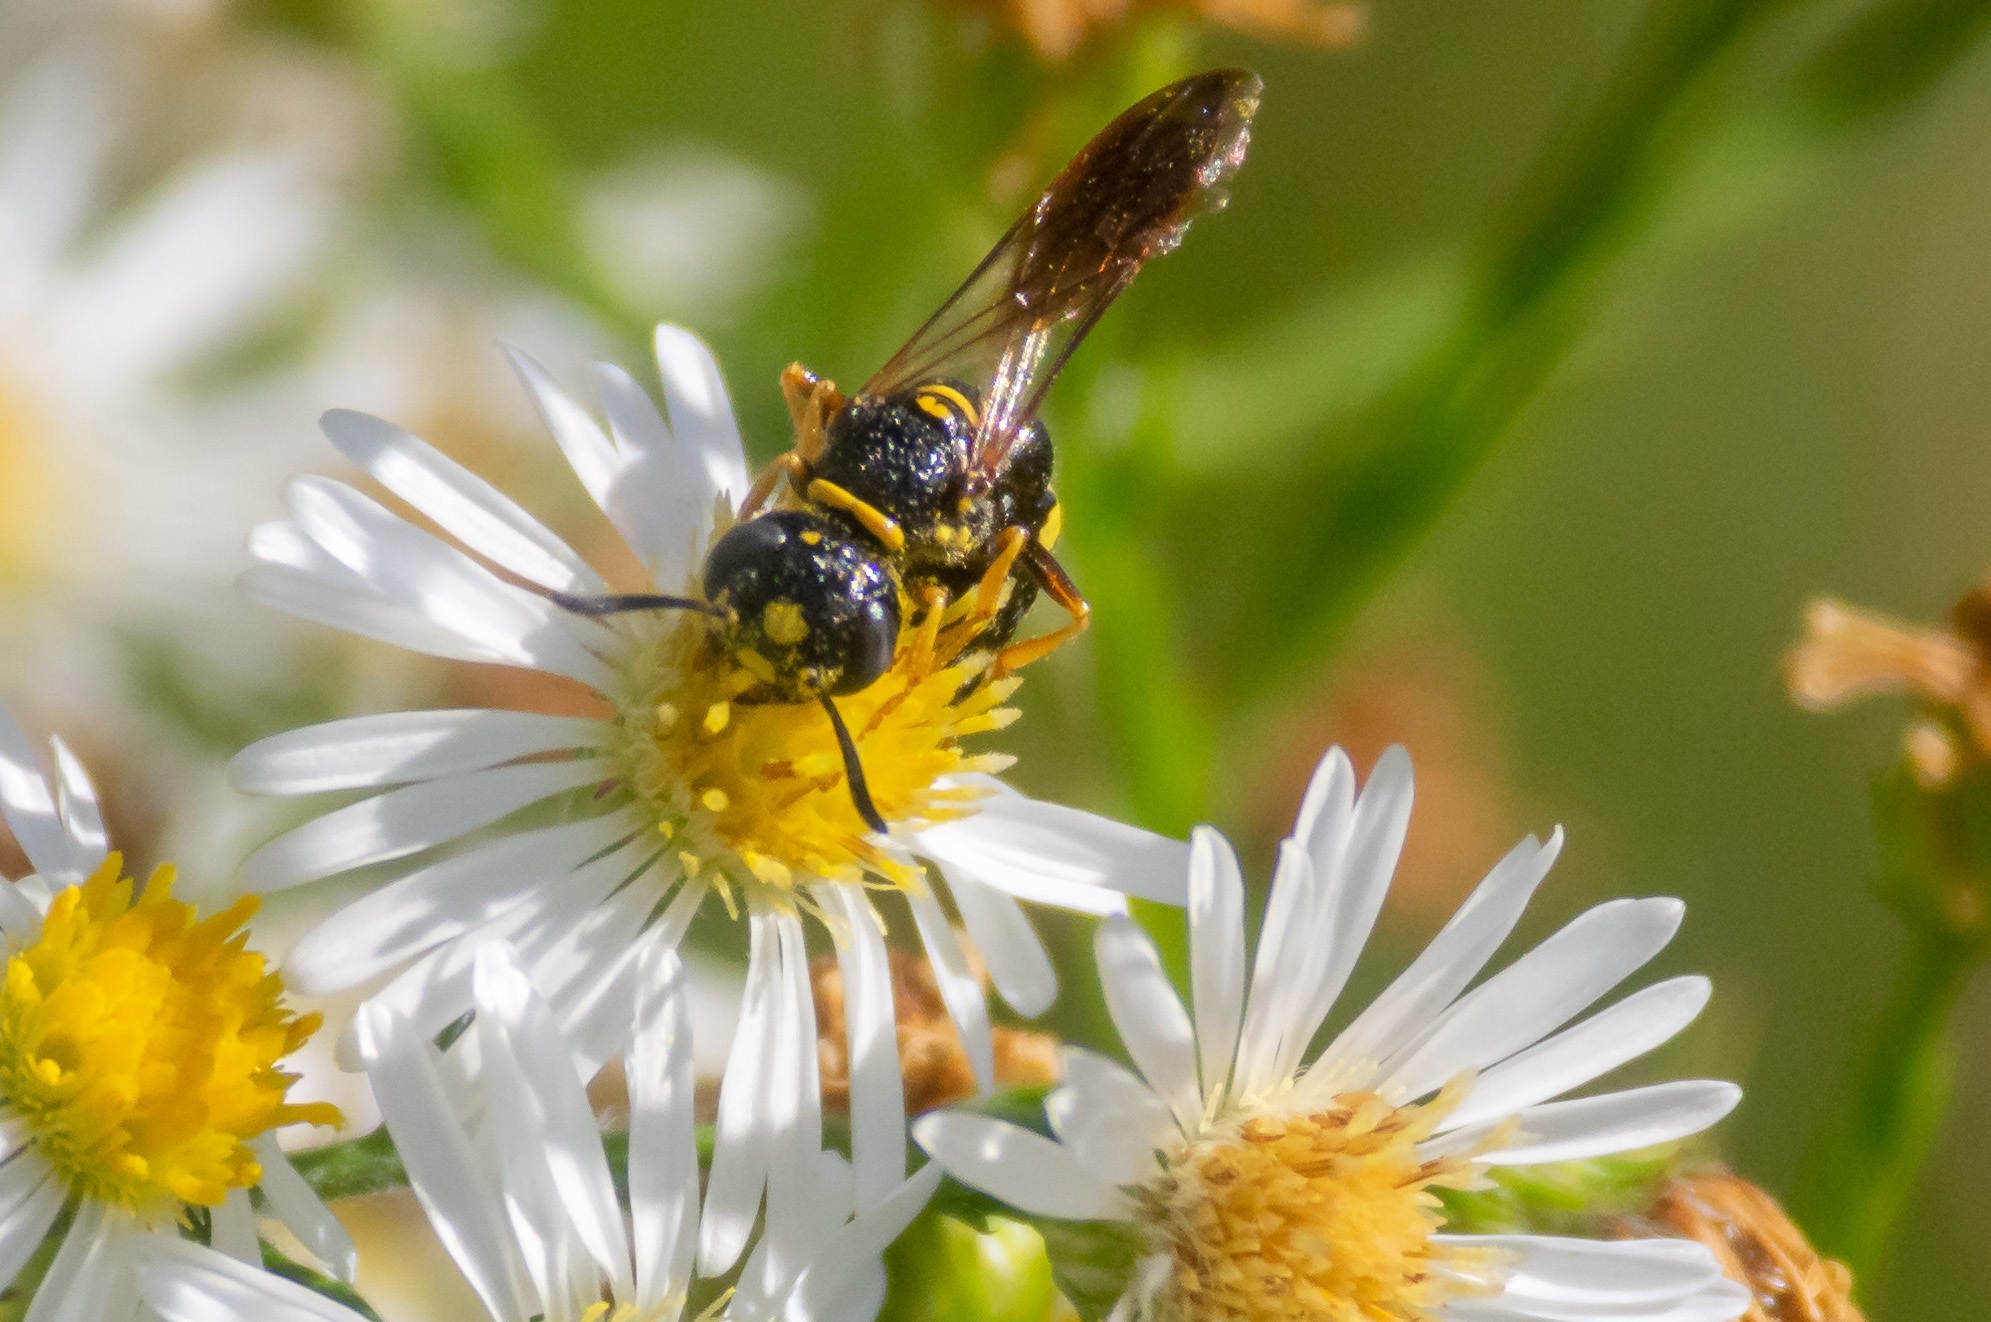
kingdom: Animalia
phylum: Arthropoda
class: Insecta
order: Hymenoptera
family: Crabronidae
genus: Philanthus
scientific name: Philanthus gibbosus
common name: Humped beewolf
